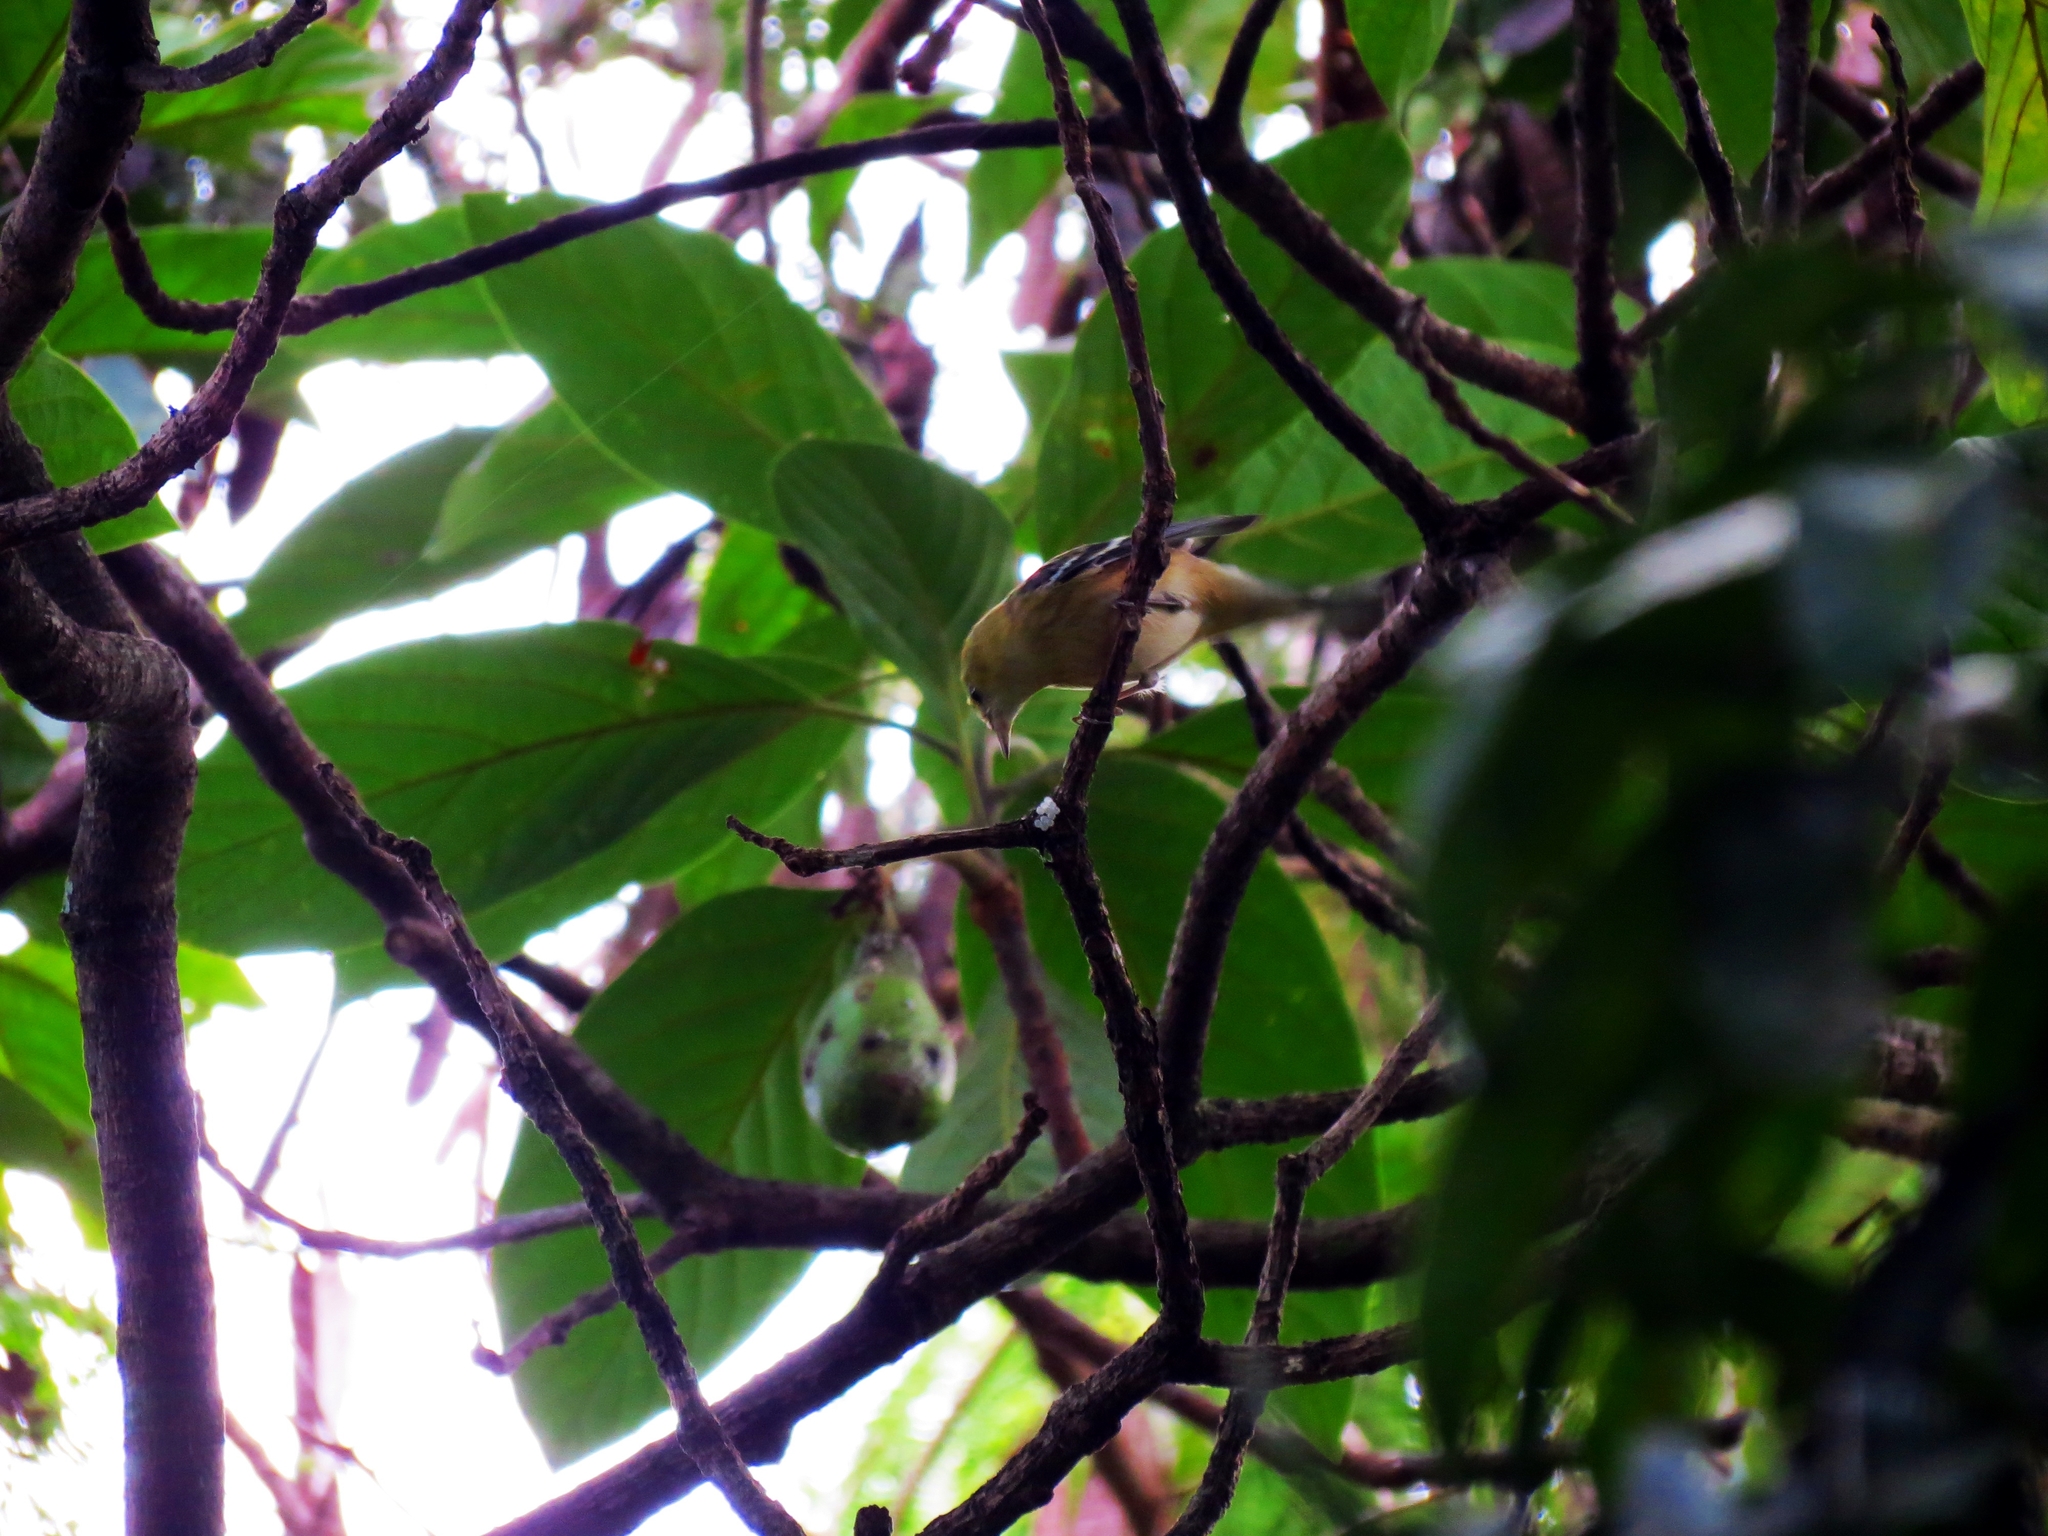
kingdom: Animalia
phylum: Chordata
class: Aves
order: Passeriformes
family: Parulidae
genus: Setophaga
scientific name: Setophaga castanea
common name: Bay-breasted warbler
